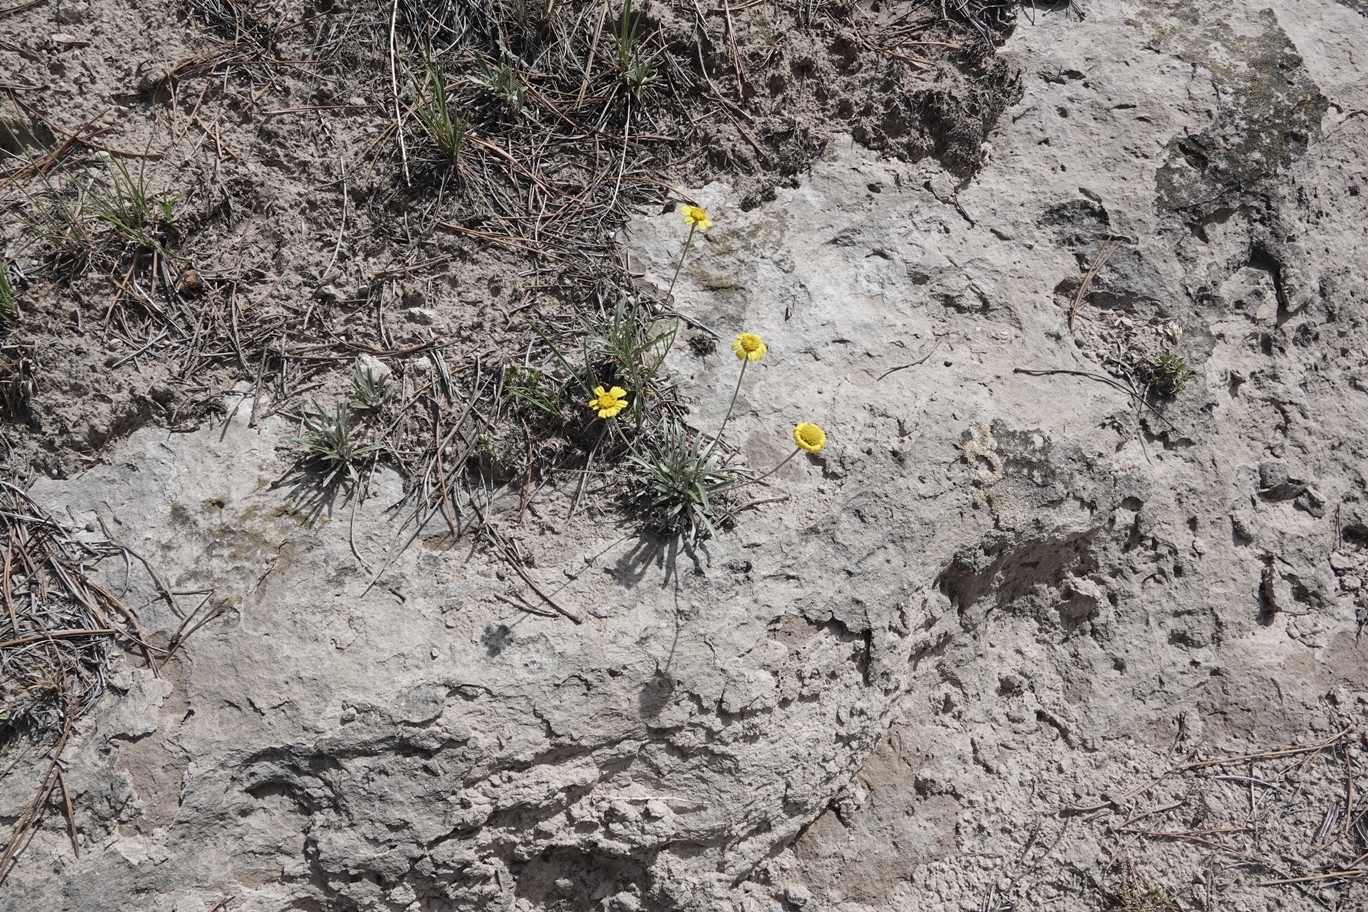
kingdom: Plantae
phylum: Tracheophyta
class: Magnoliopsida
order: Asterales
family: Asteraceae
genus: Tetraneuris
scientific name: Tetraneuris acaulis
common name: Butte marigold
